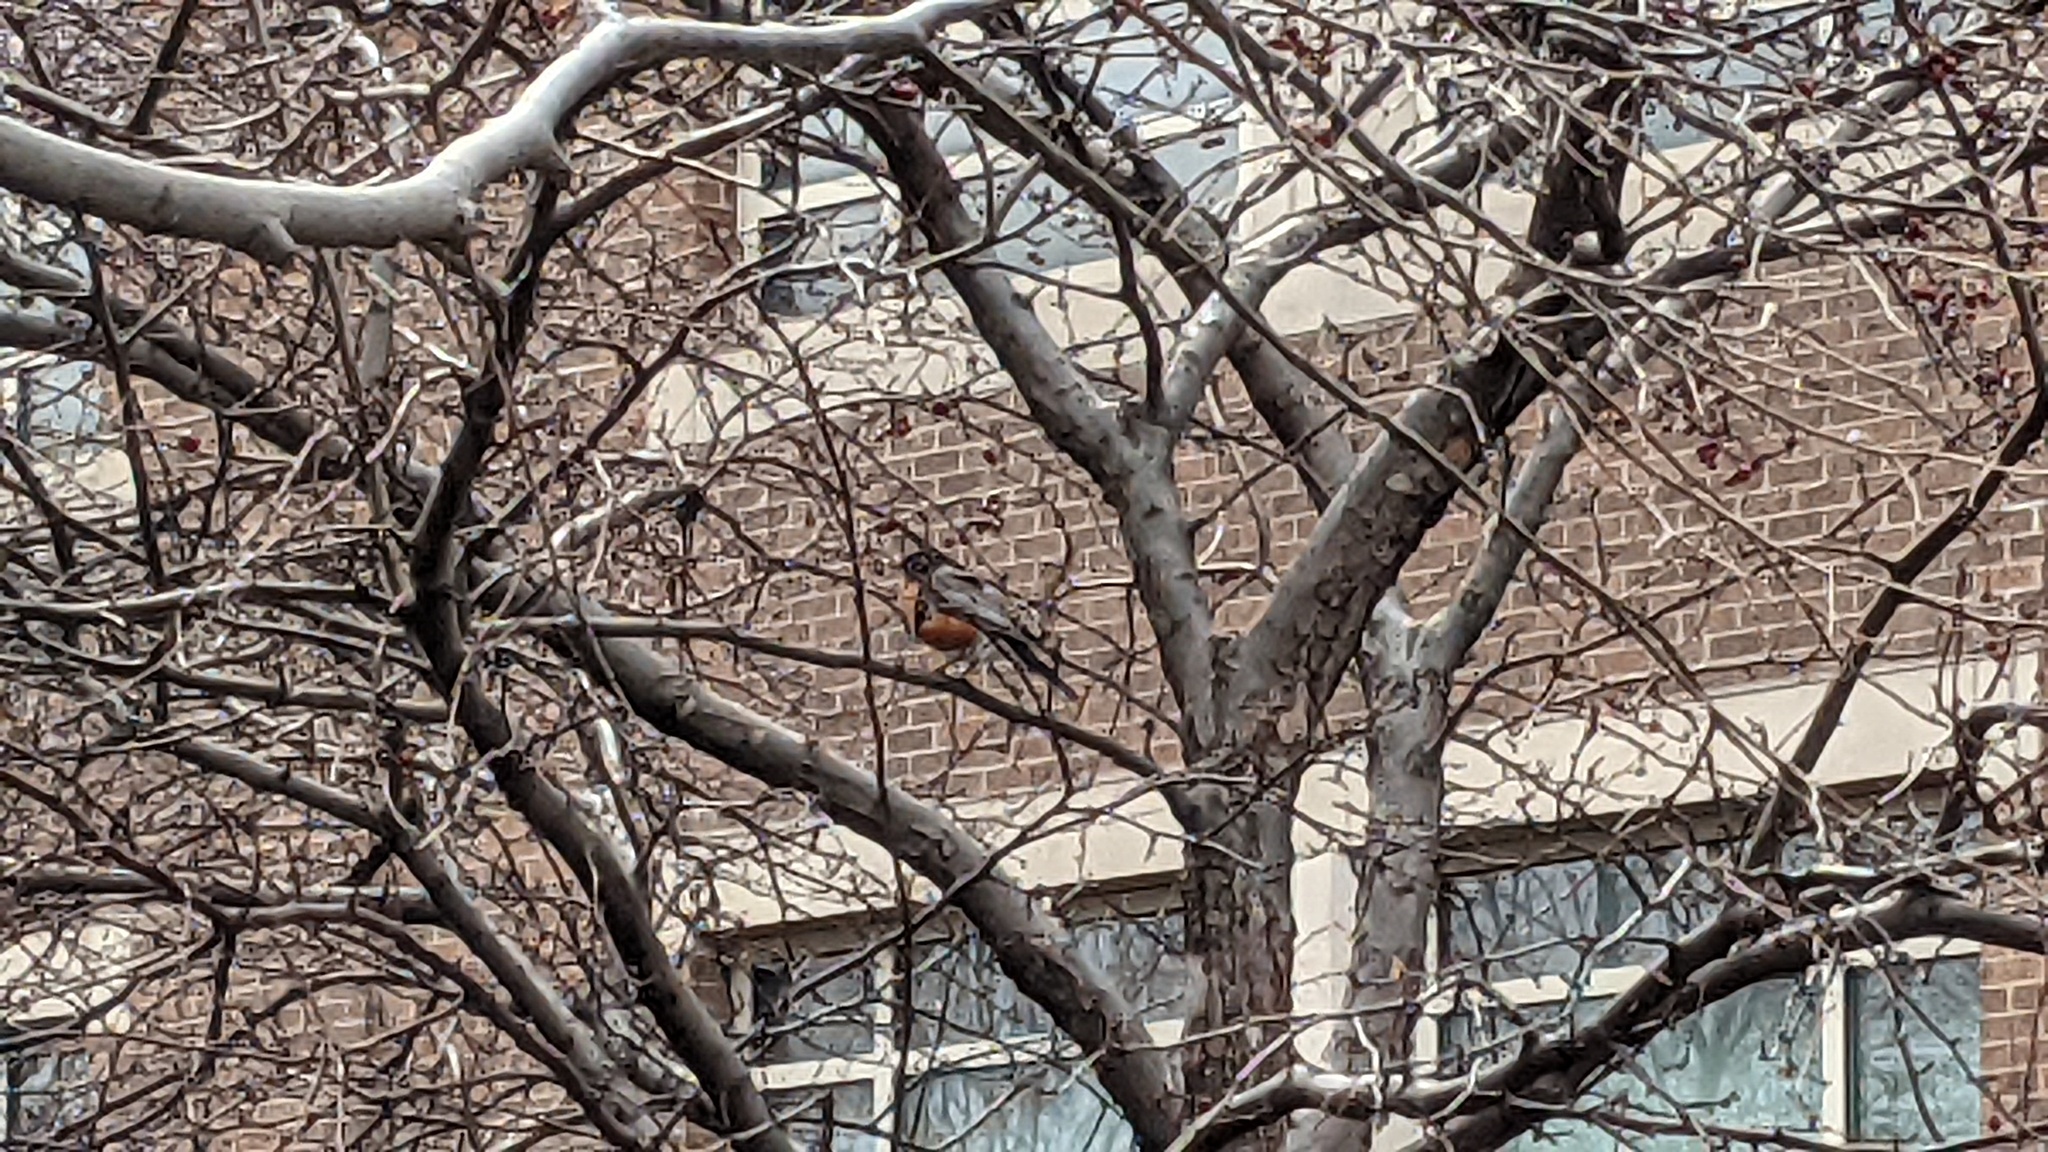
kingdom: Animalia
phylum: Chordata
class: Aves
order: Passeriformes
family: Turdidae
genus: Turdus
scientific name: Turdus migratorius
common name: American robin
